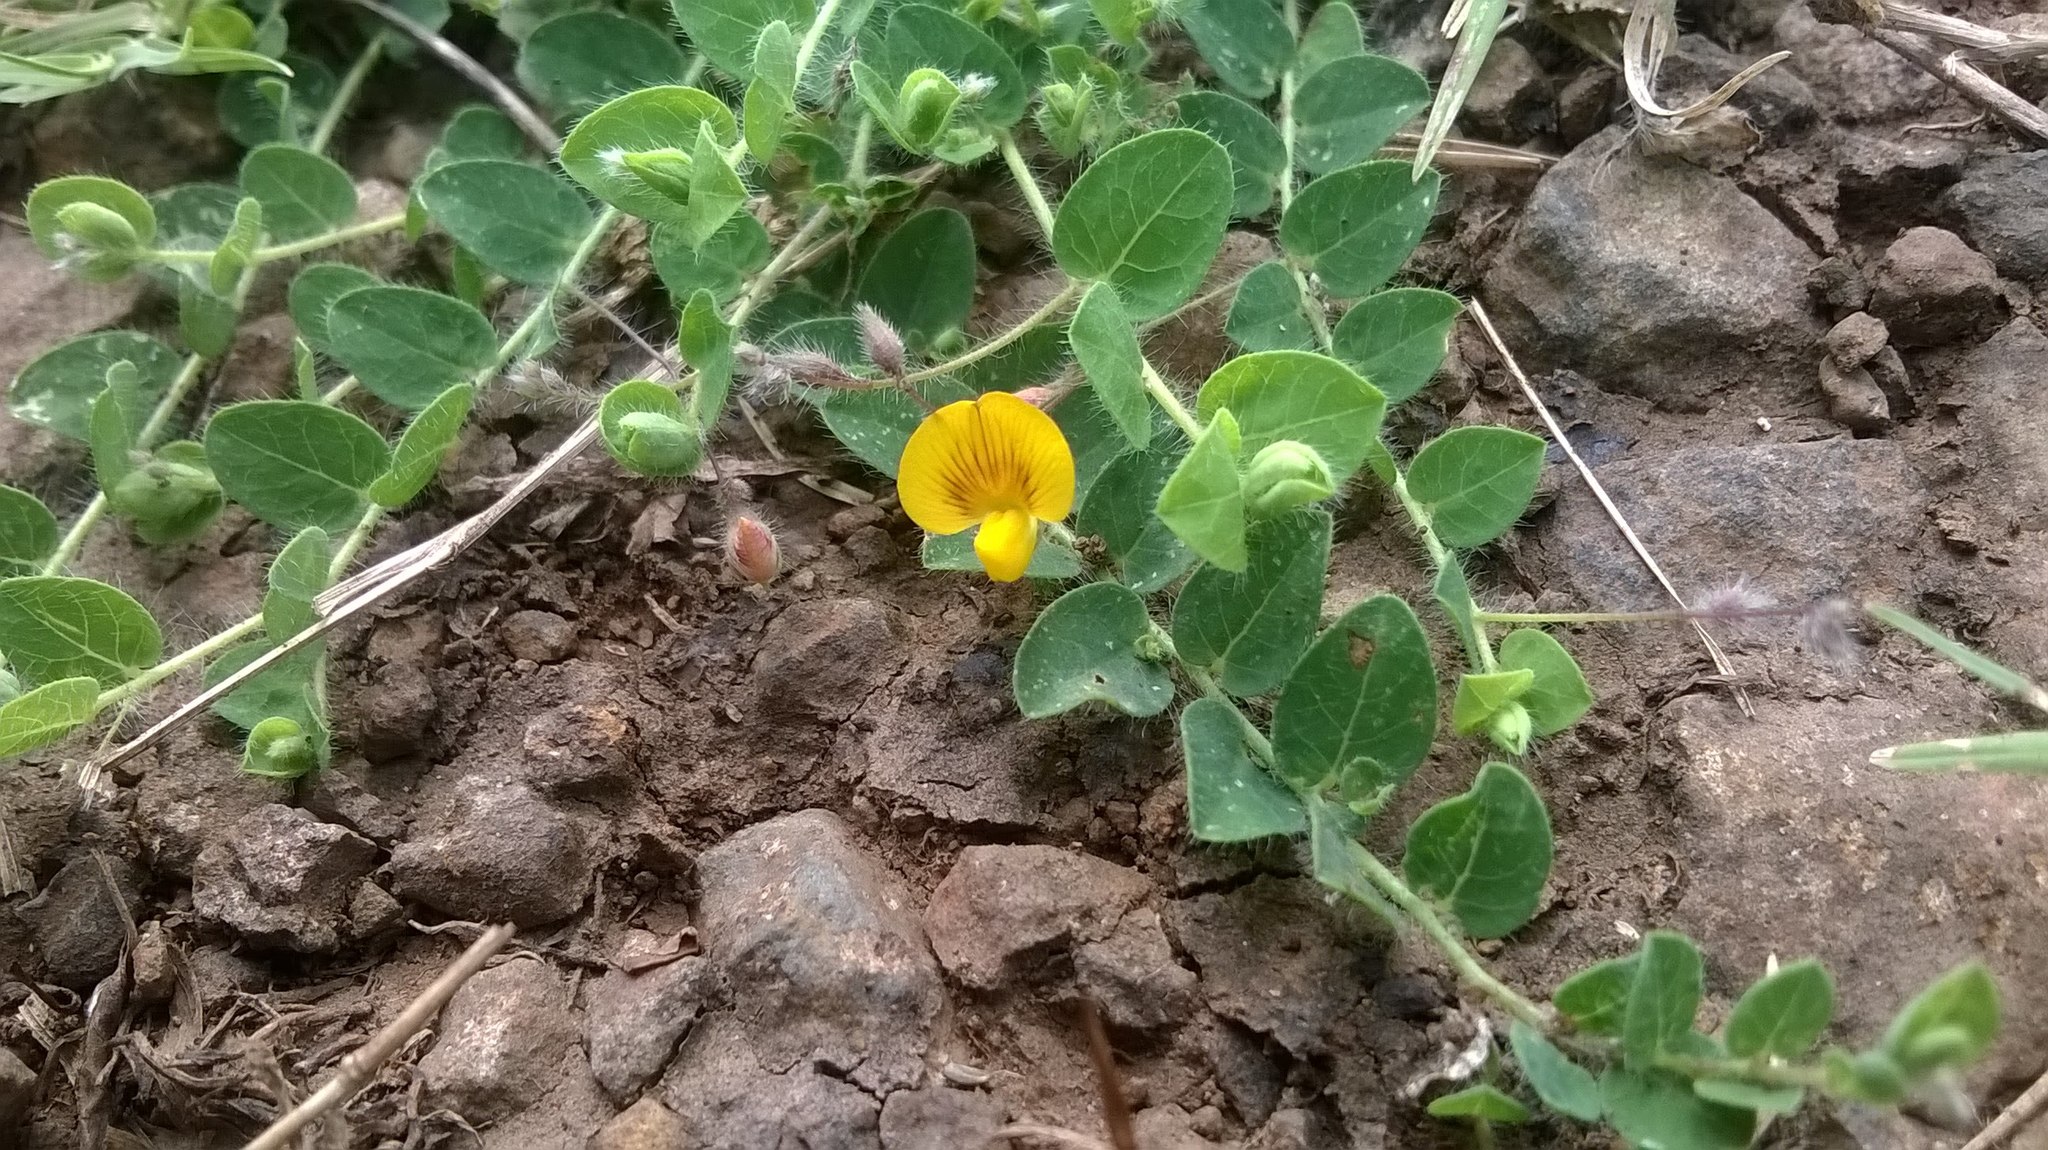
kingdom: Plantae
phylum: Tracheophyta
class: Magnoliopsida
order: Fabales
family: Fabaceae
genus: Crotalaria
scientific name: Crotalaria filipes
